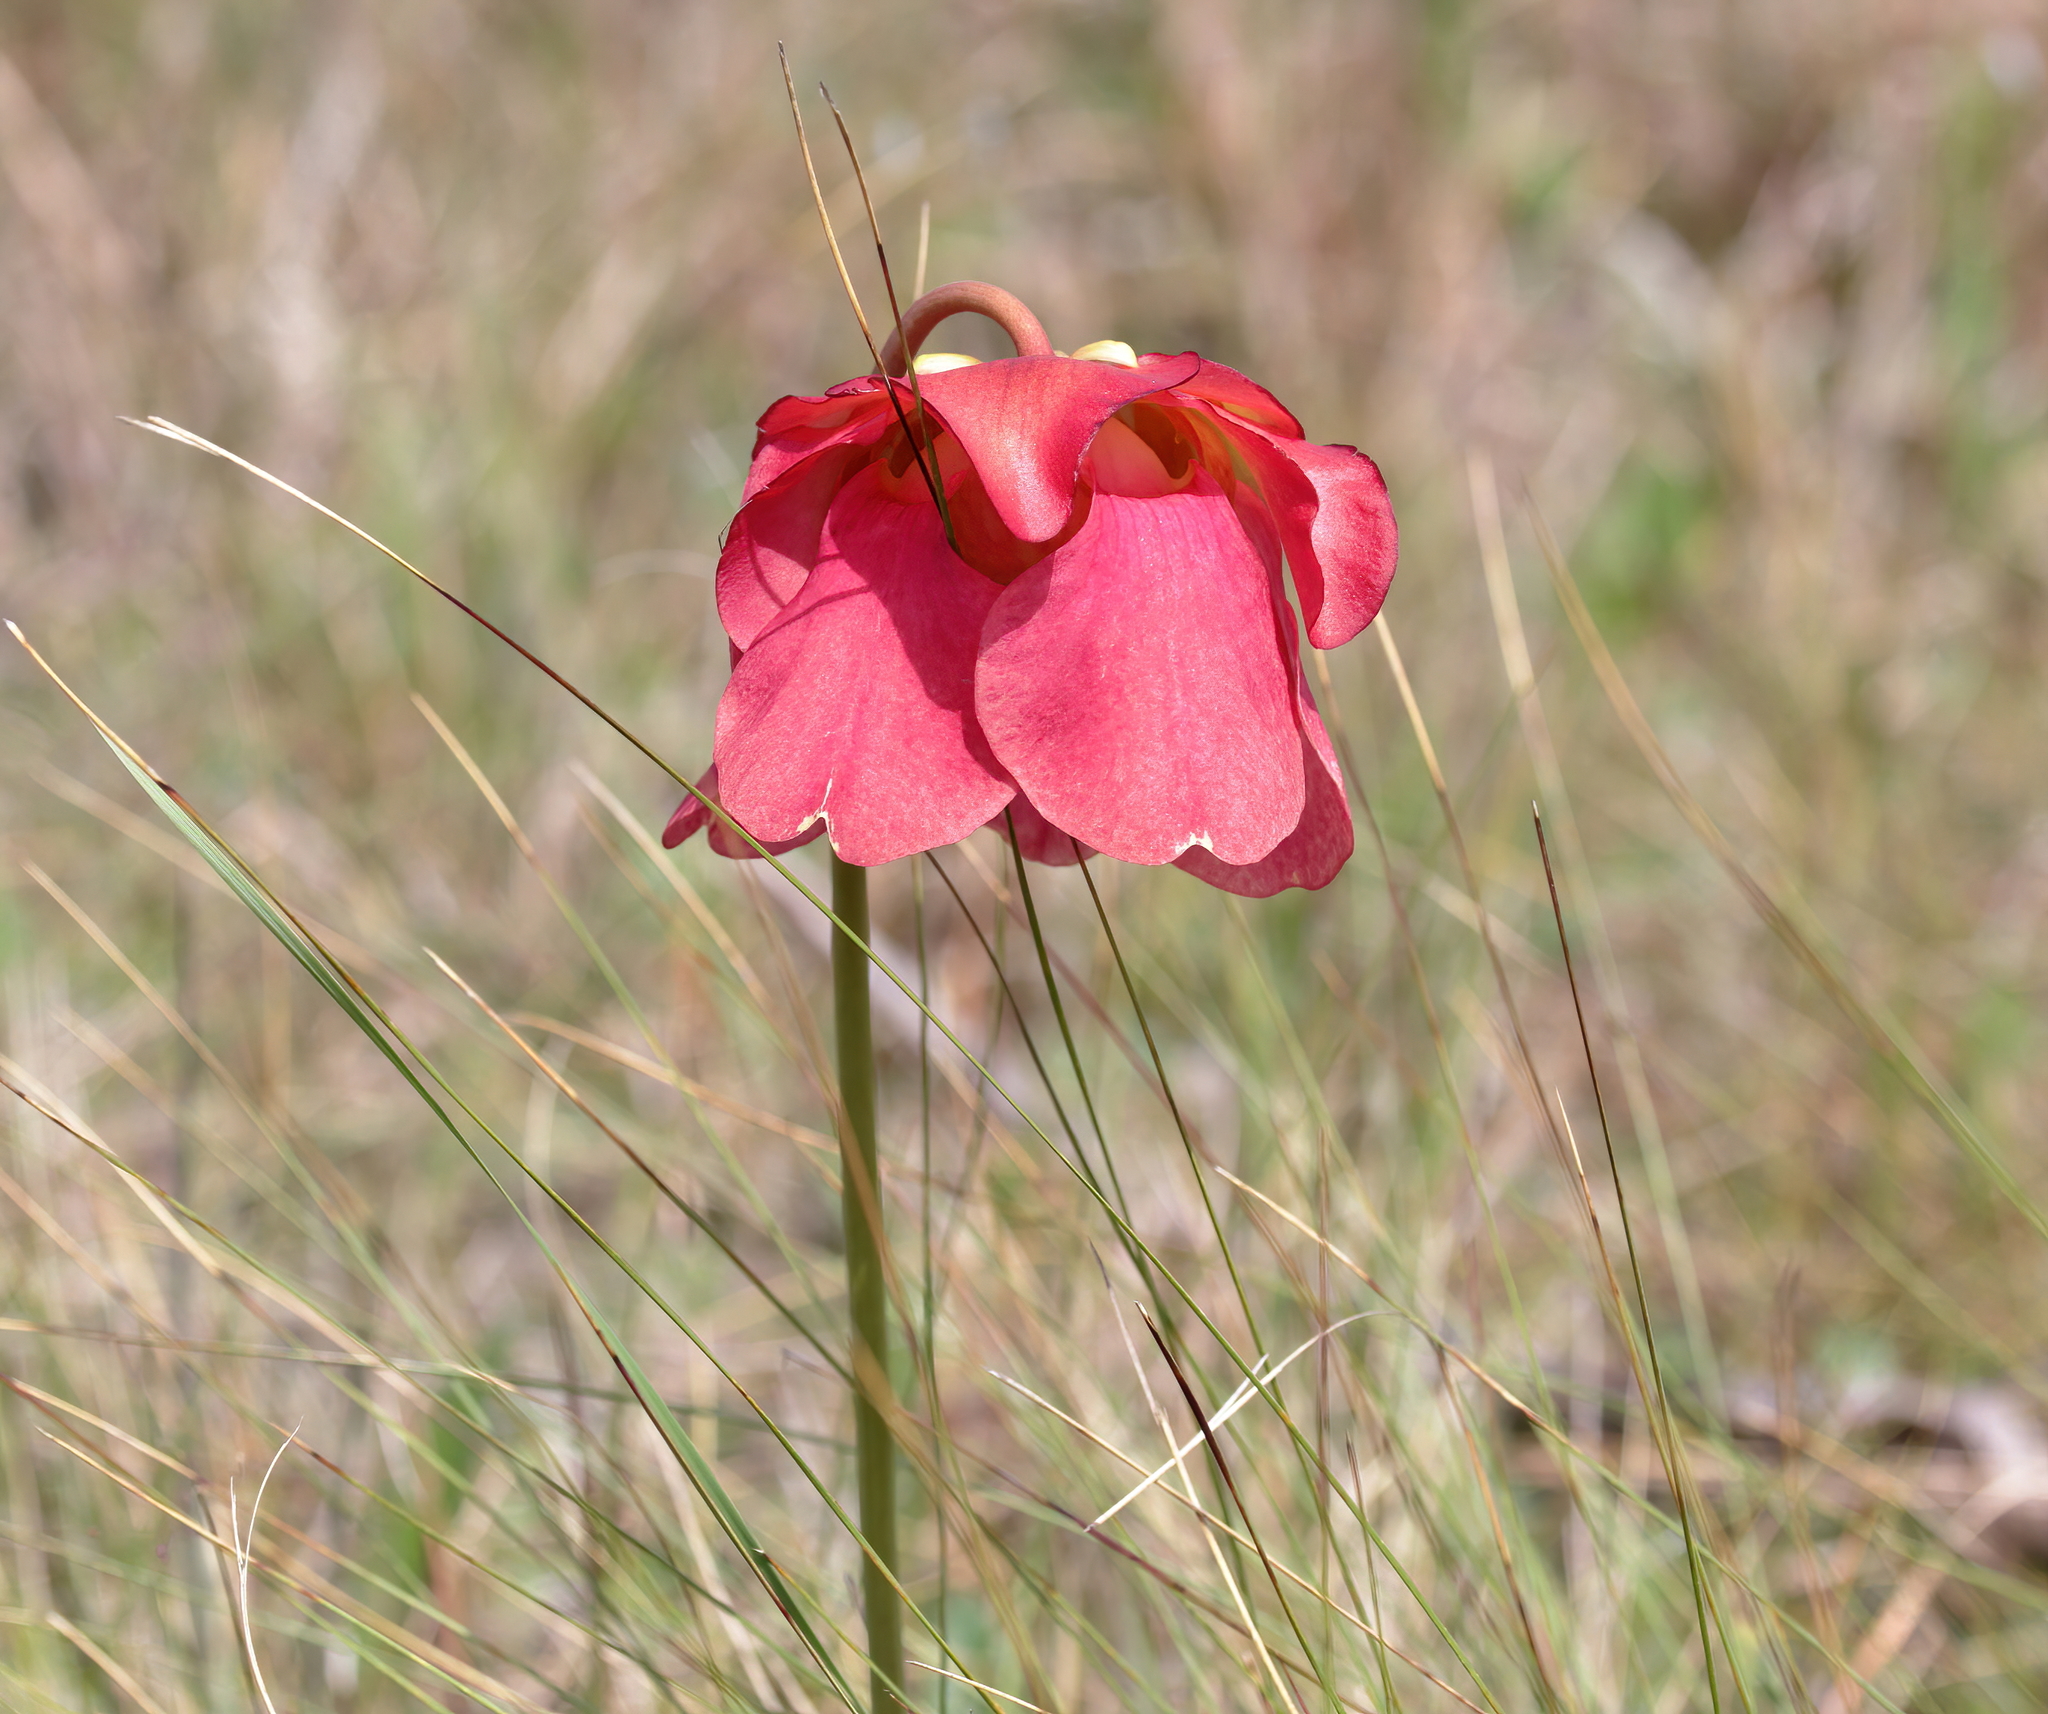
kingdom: Plantae
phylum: Tracheophyta
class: Magnoliopsida
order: Ericales
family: Sarraceniaceae
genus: Sarracenia
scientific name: Sarracenia areolata
